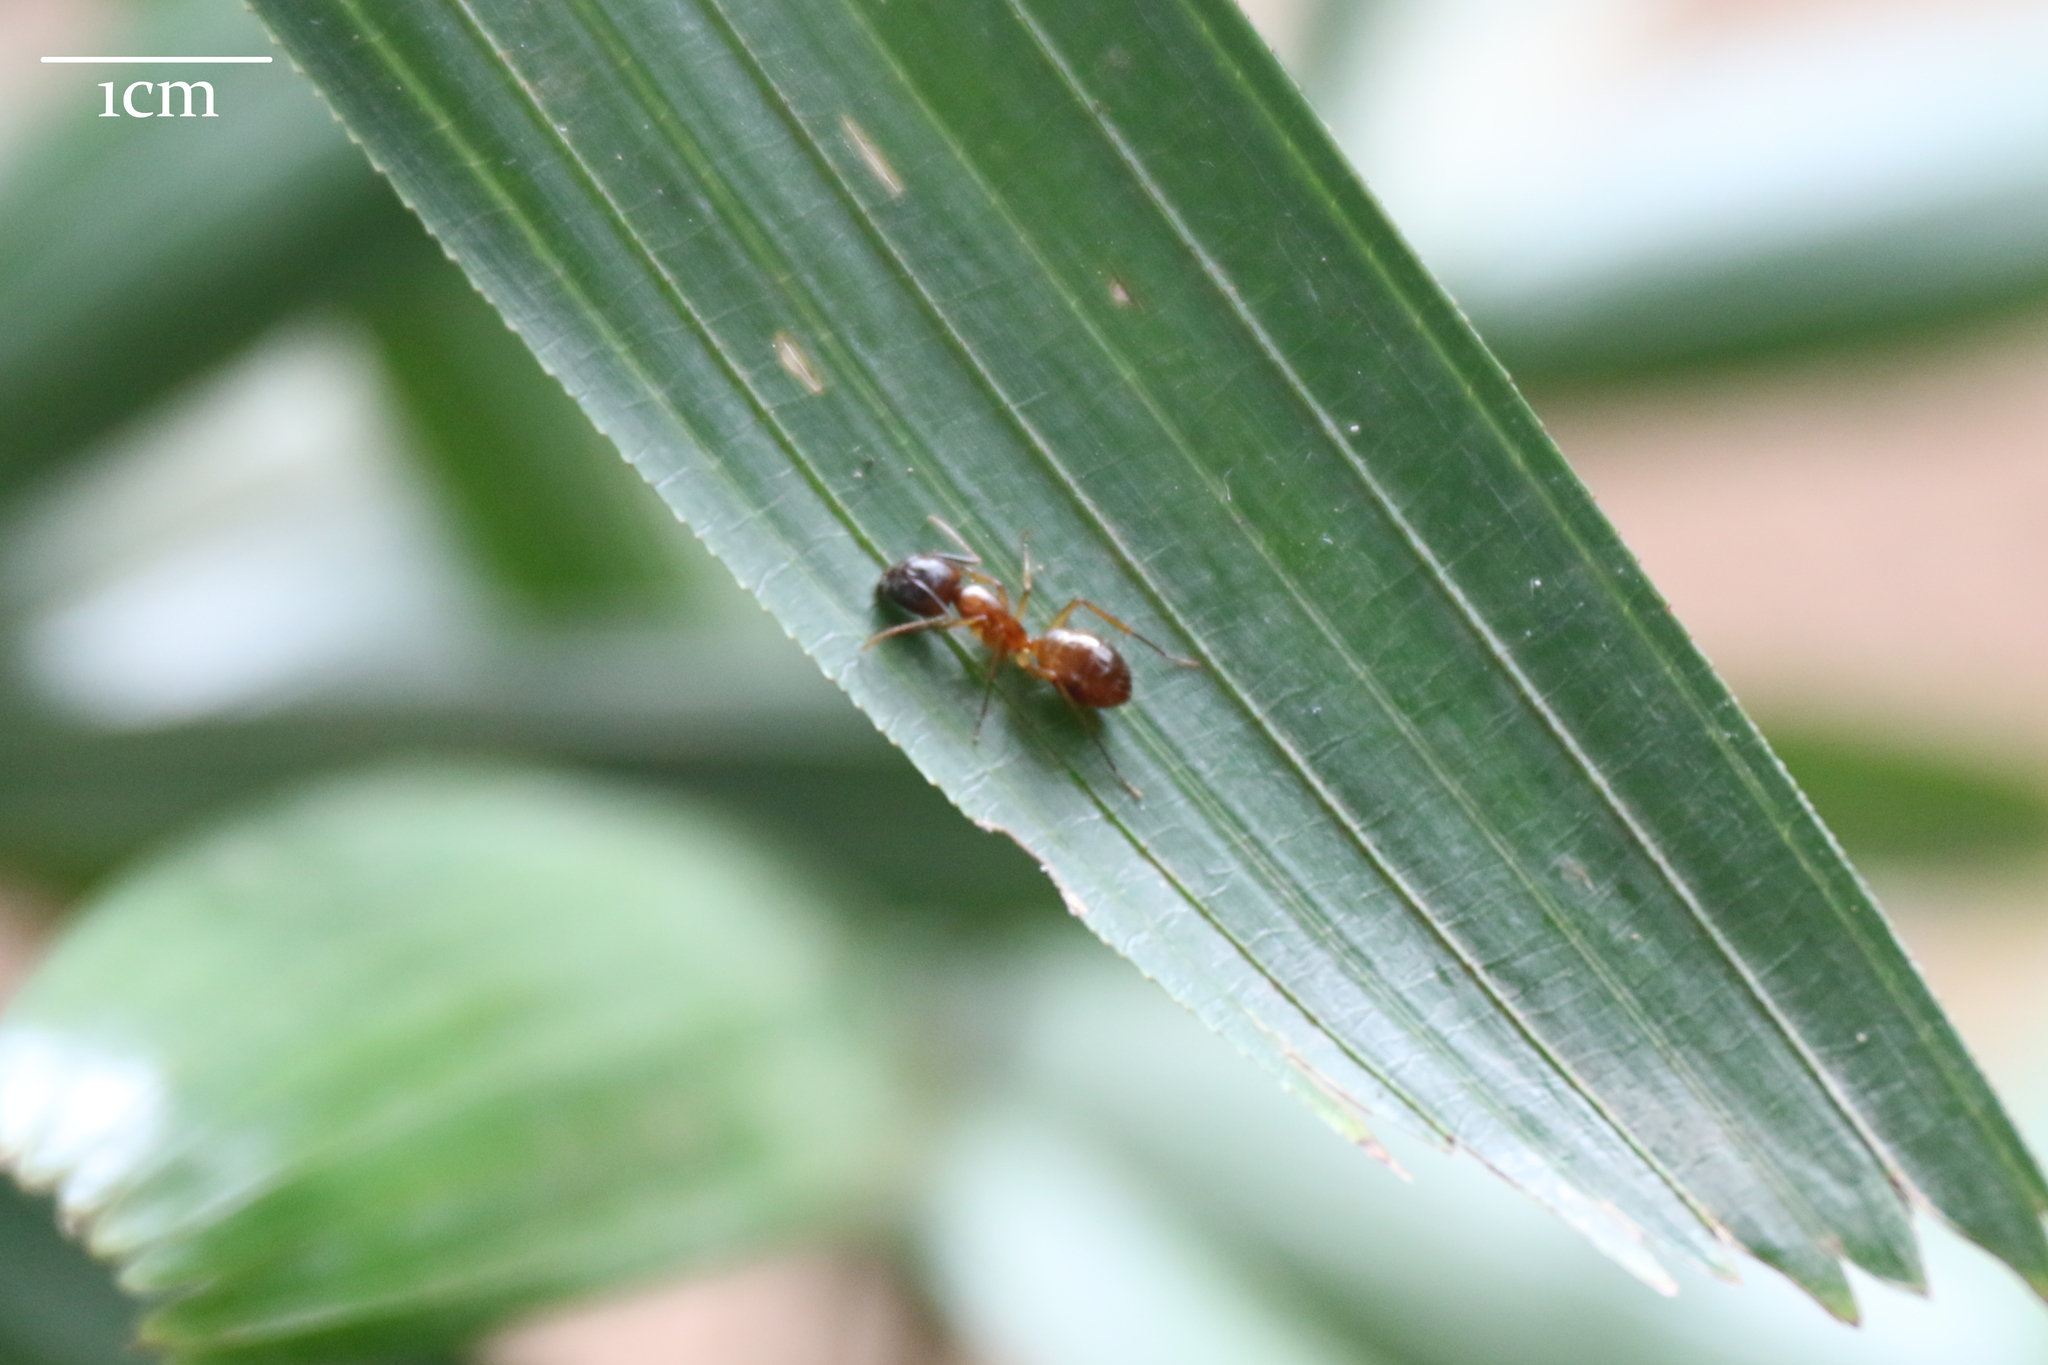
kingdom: Animalia
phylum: Arthropoda
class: Insecta
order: Hymenoptera
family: Formicidae
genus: Camponotus
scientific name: Camponotus variegatus
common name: Hawaiian carpenter ant
